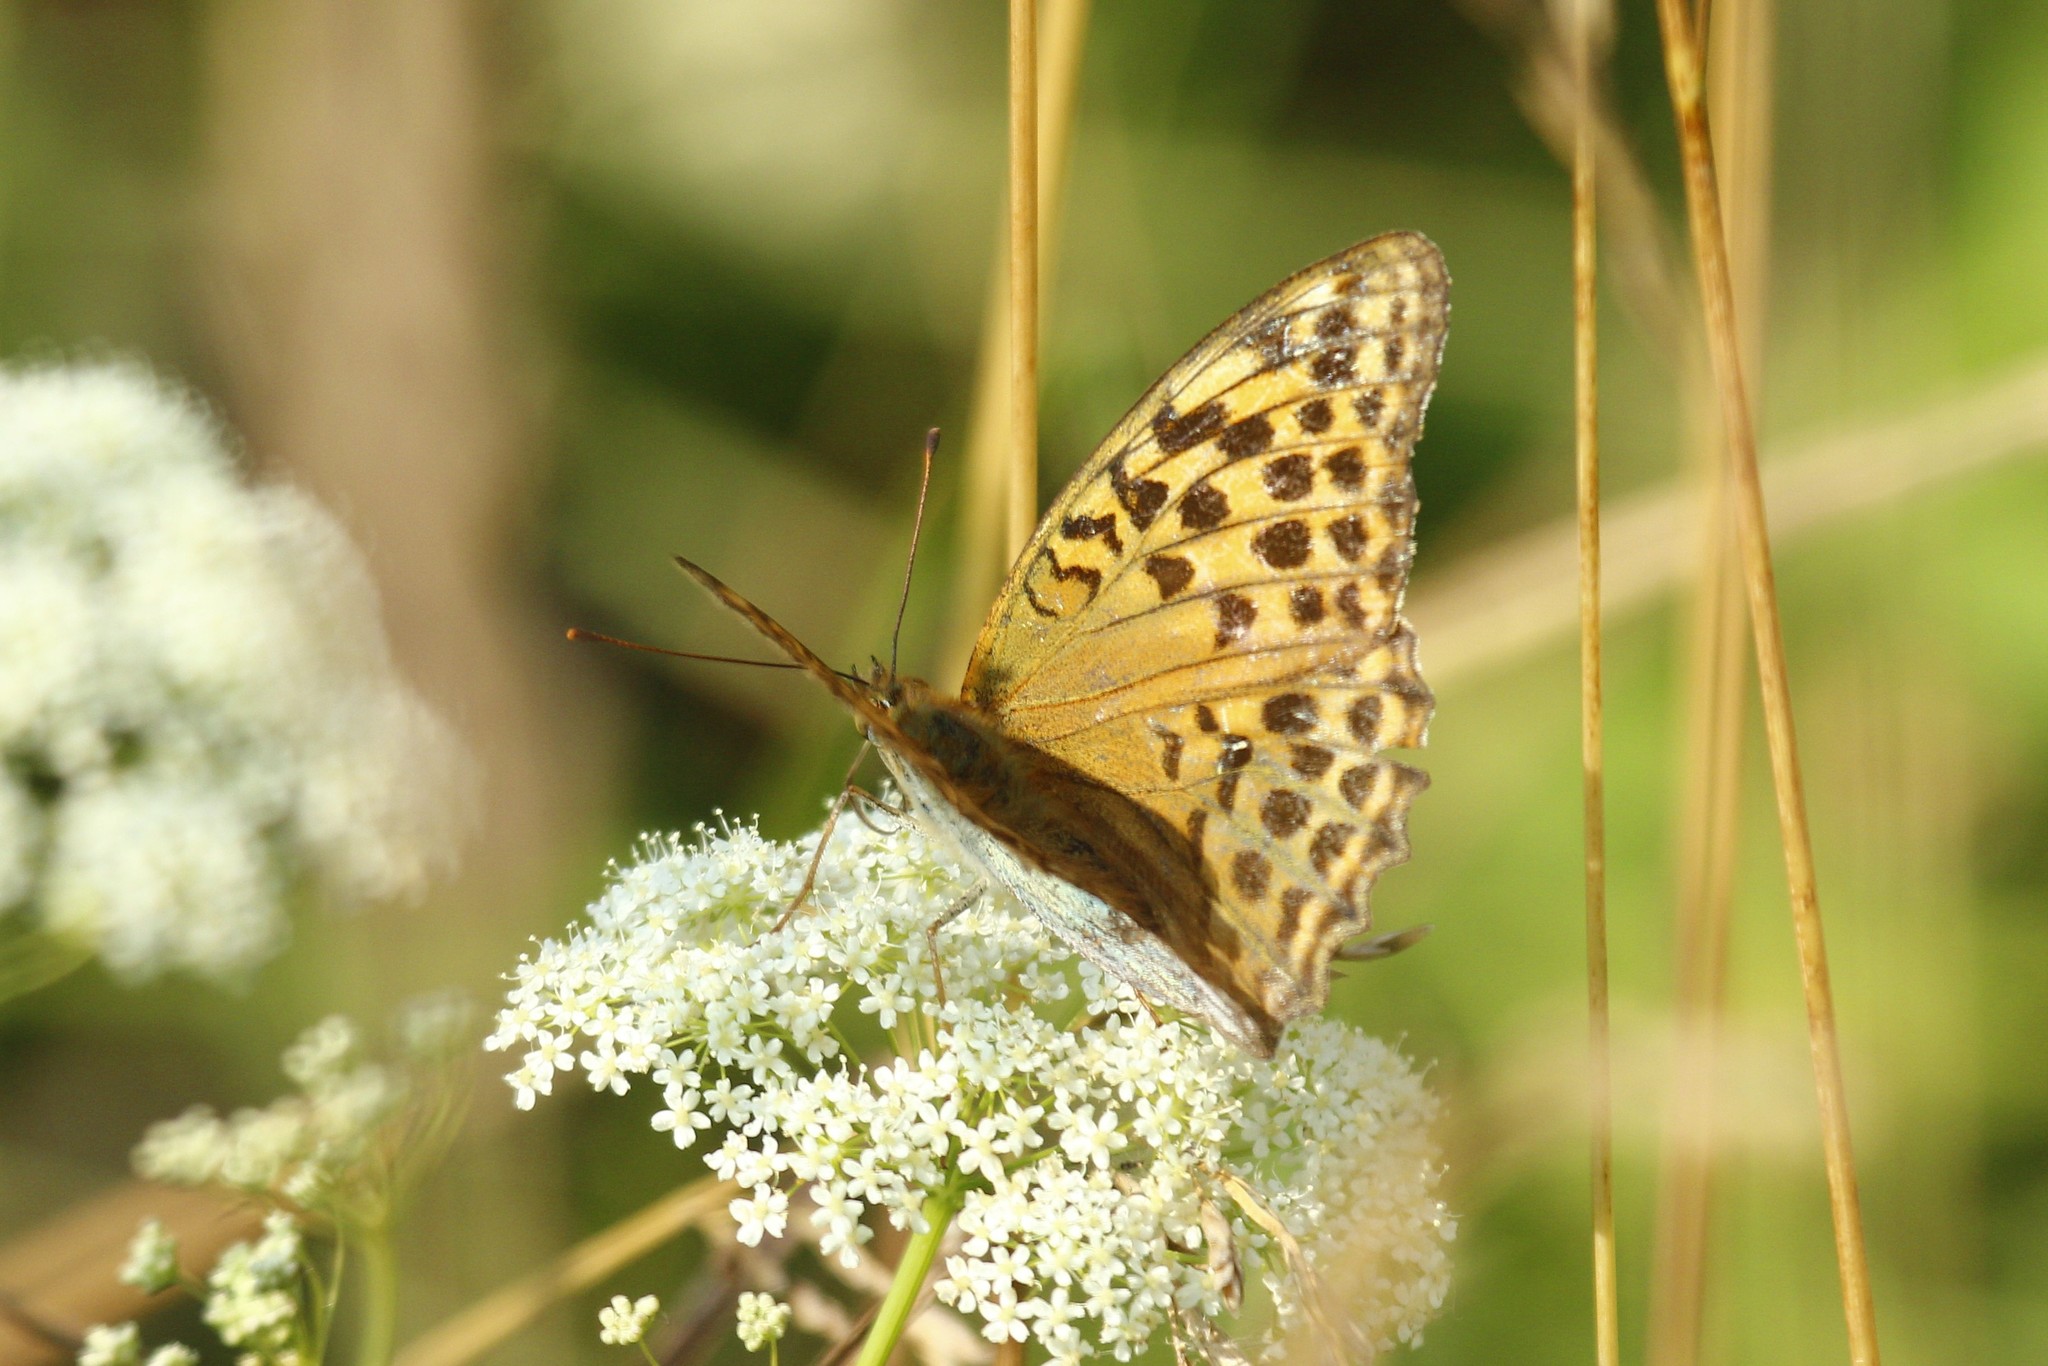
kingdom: Animalia
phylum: Arthropoda
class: Insecta
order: Lepidoptera
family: Nymphalidae
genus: Argynnis
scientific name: Argynnis paphia
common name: Silver-washed fritillary
